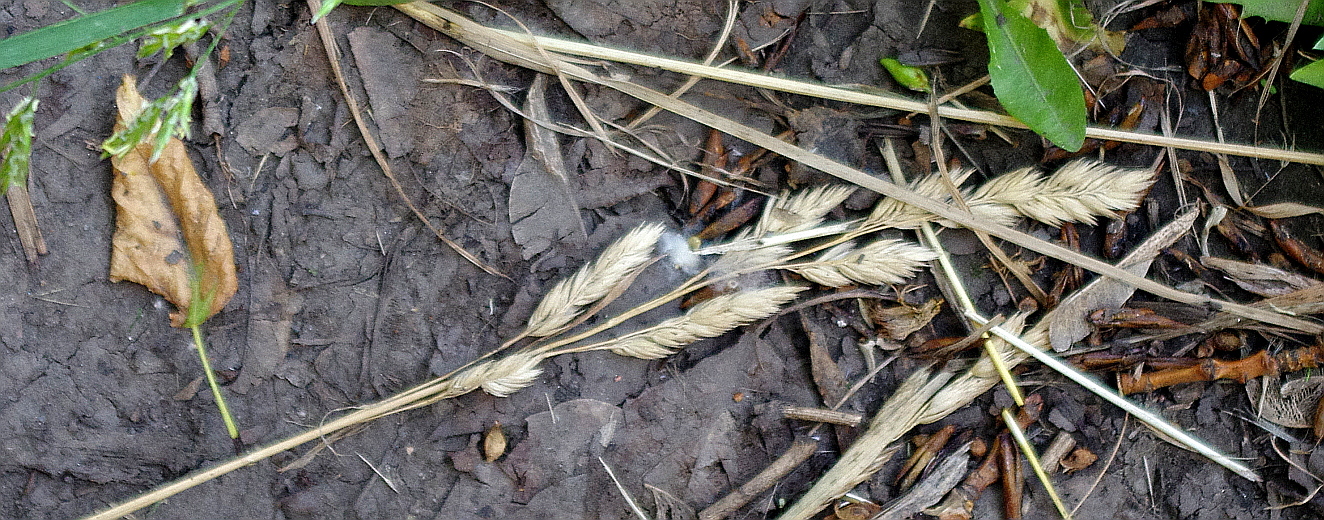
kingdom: Plantae
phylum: Tracheophyta
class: Liliopsida
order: Poales
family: Poaceae
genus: Dactylis
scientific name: Dactylis glomerata
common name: Orchardgrass
